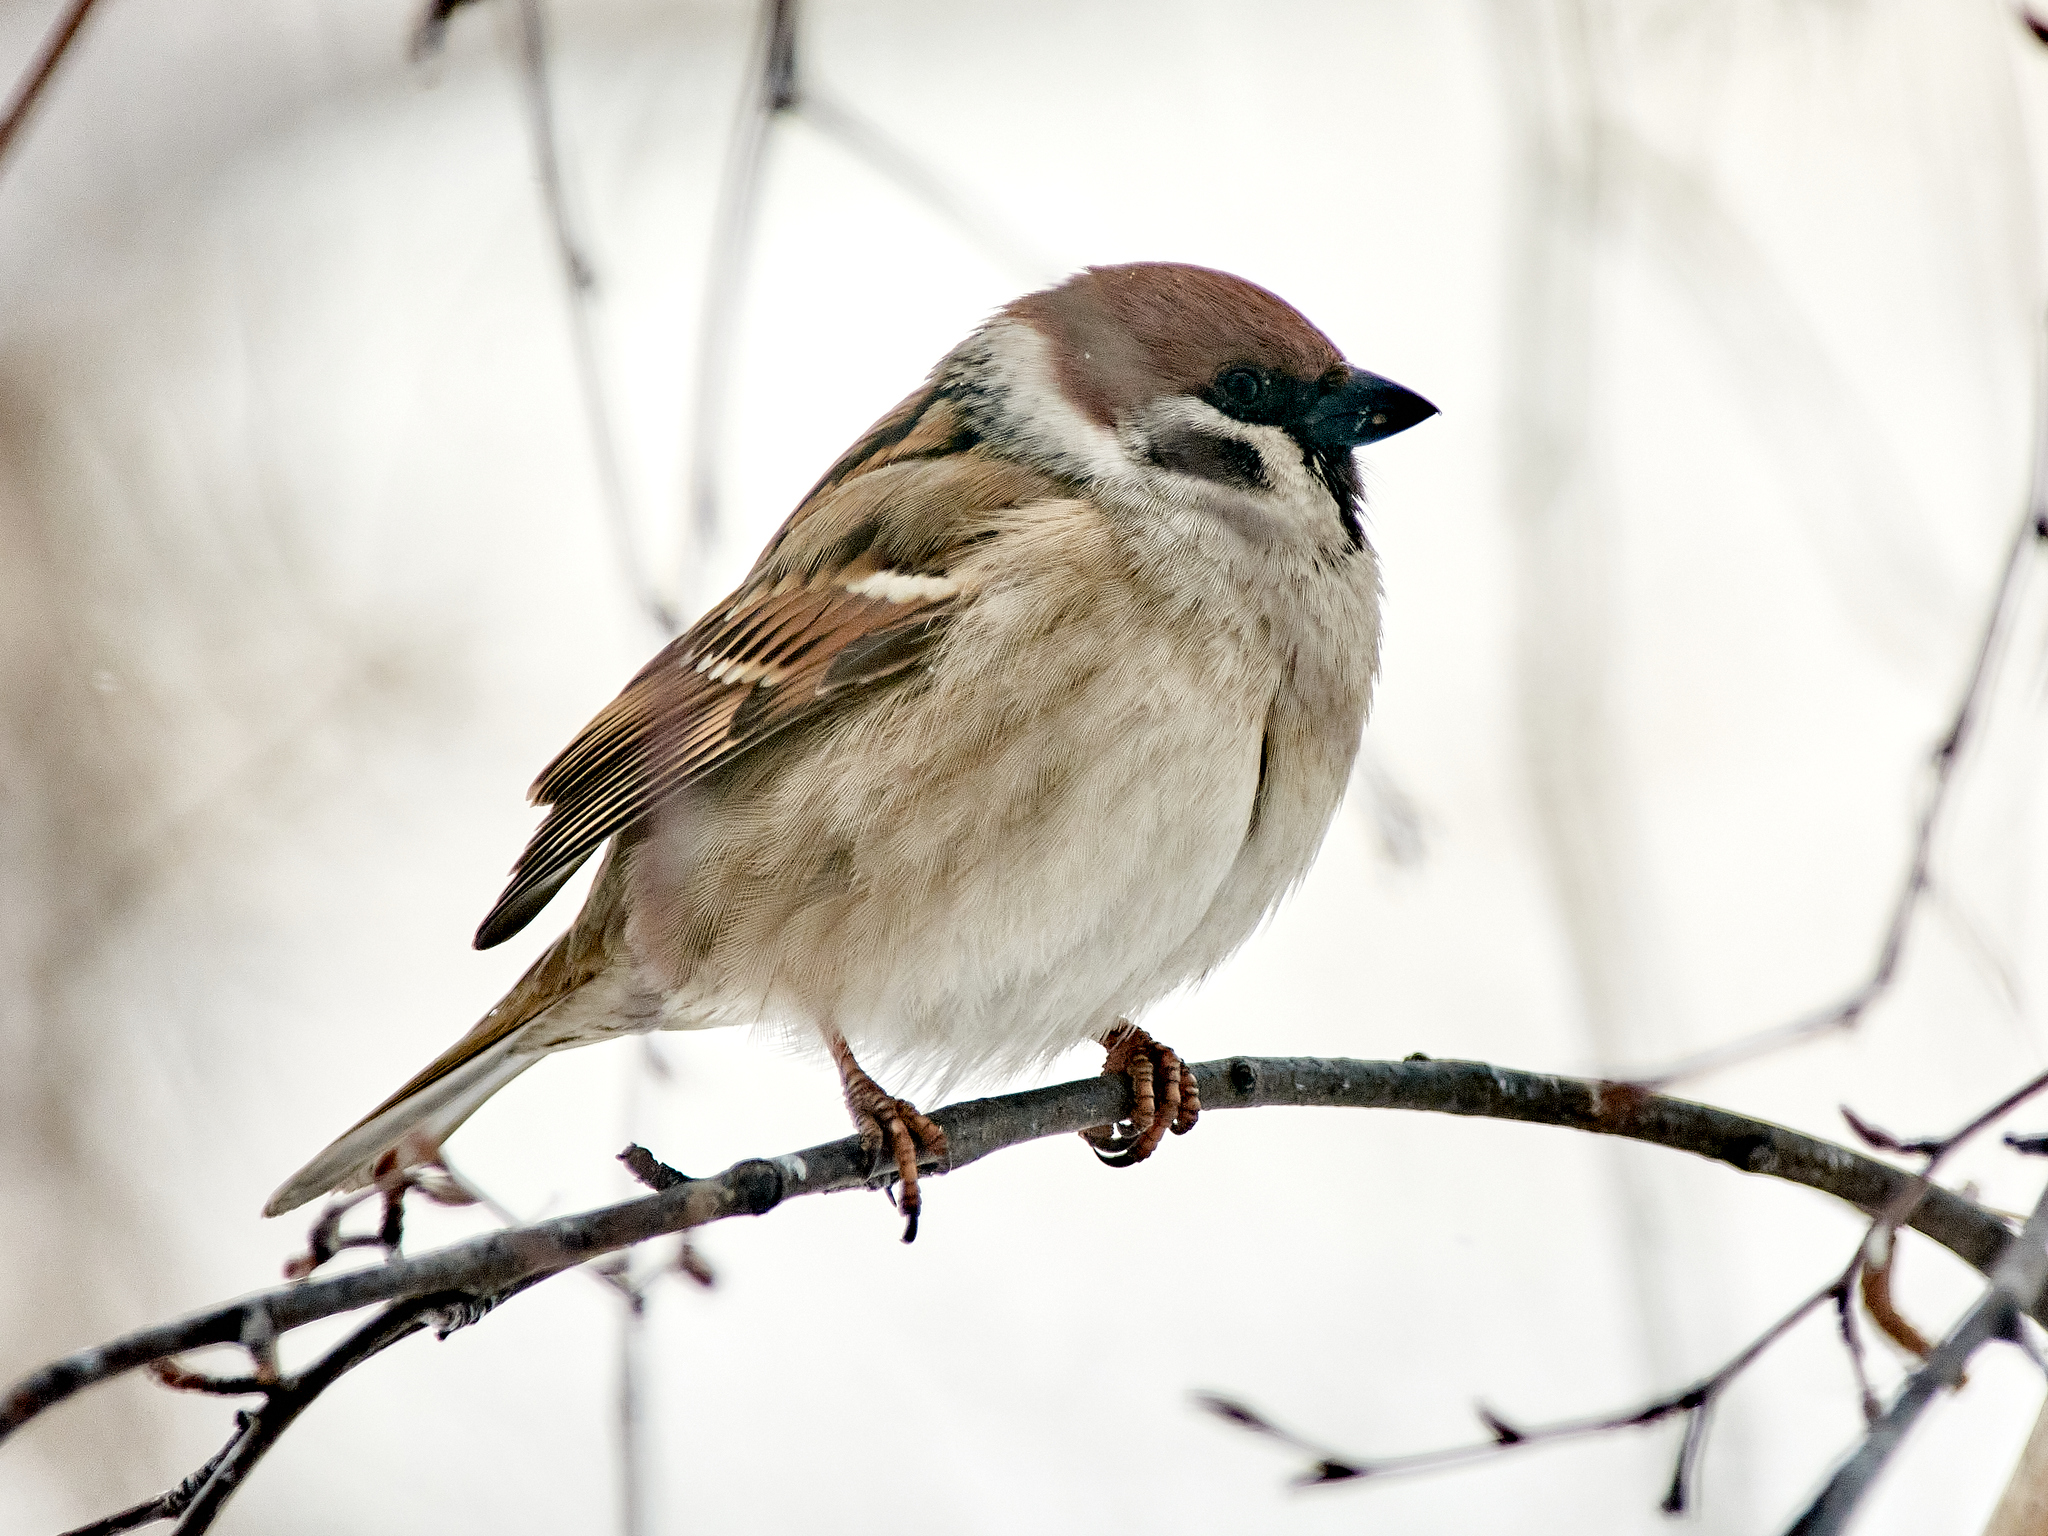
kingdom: Animalia
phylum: Chordata
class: Aves
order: Passeriformes
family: Passeridae
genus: Passer
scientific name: Passer montanus
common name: Eurasian tree sparrow
